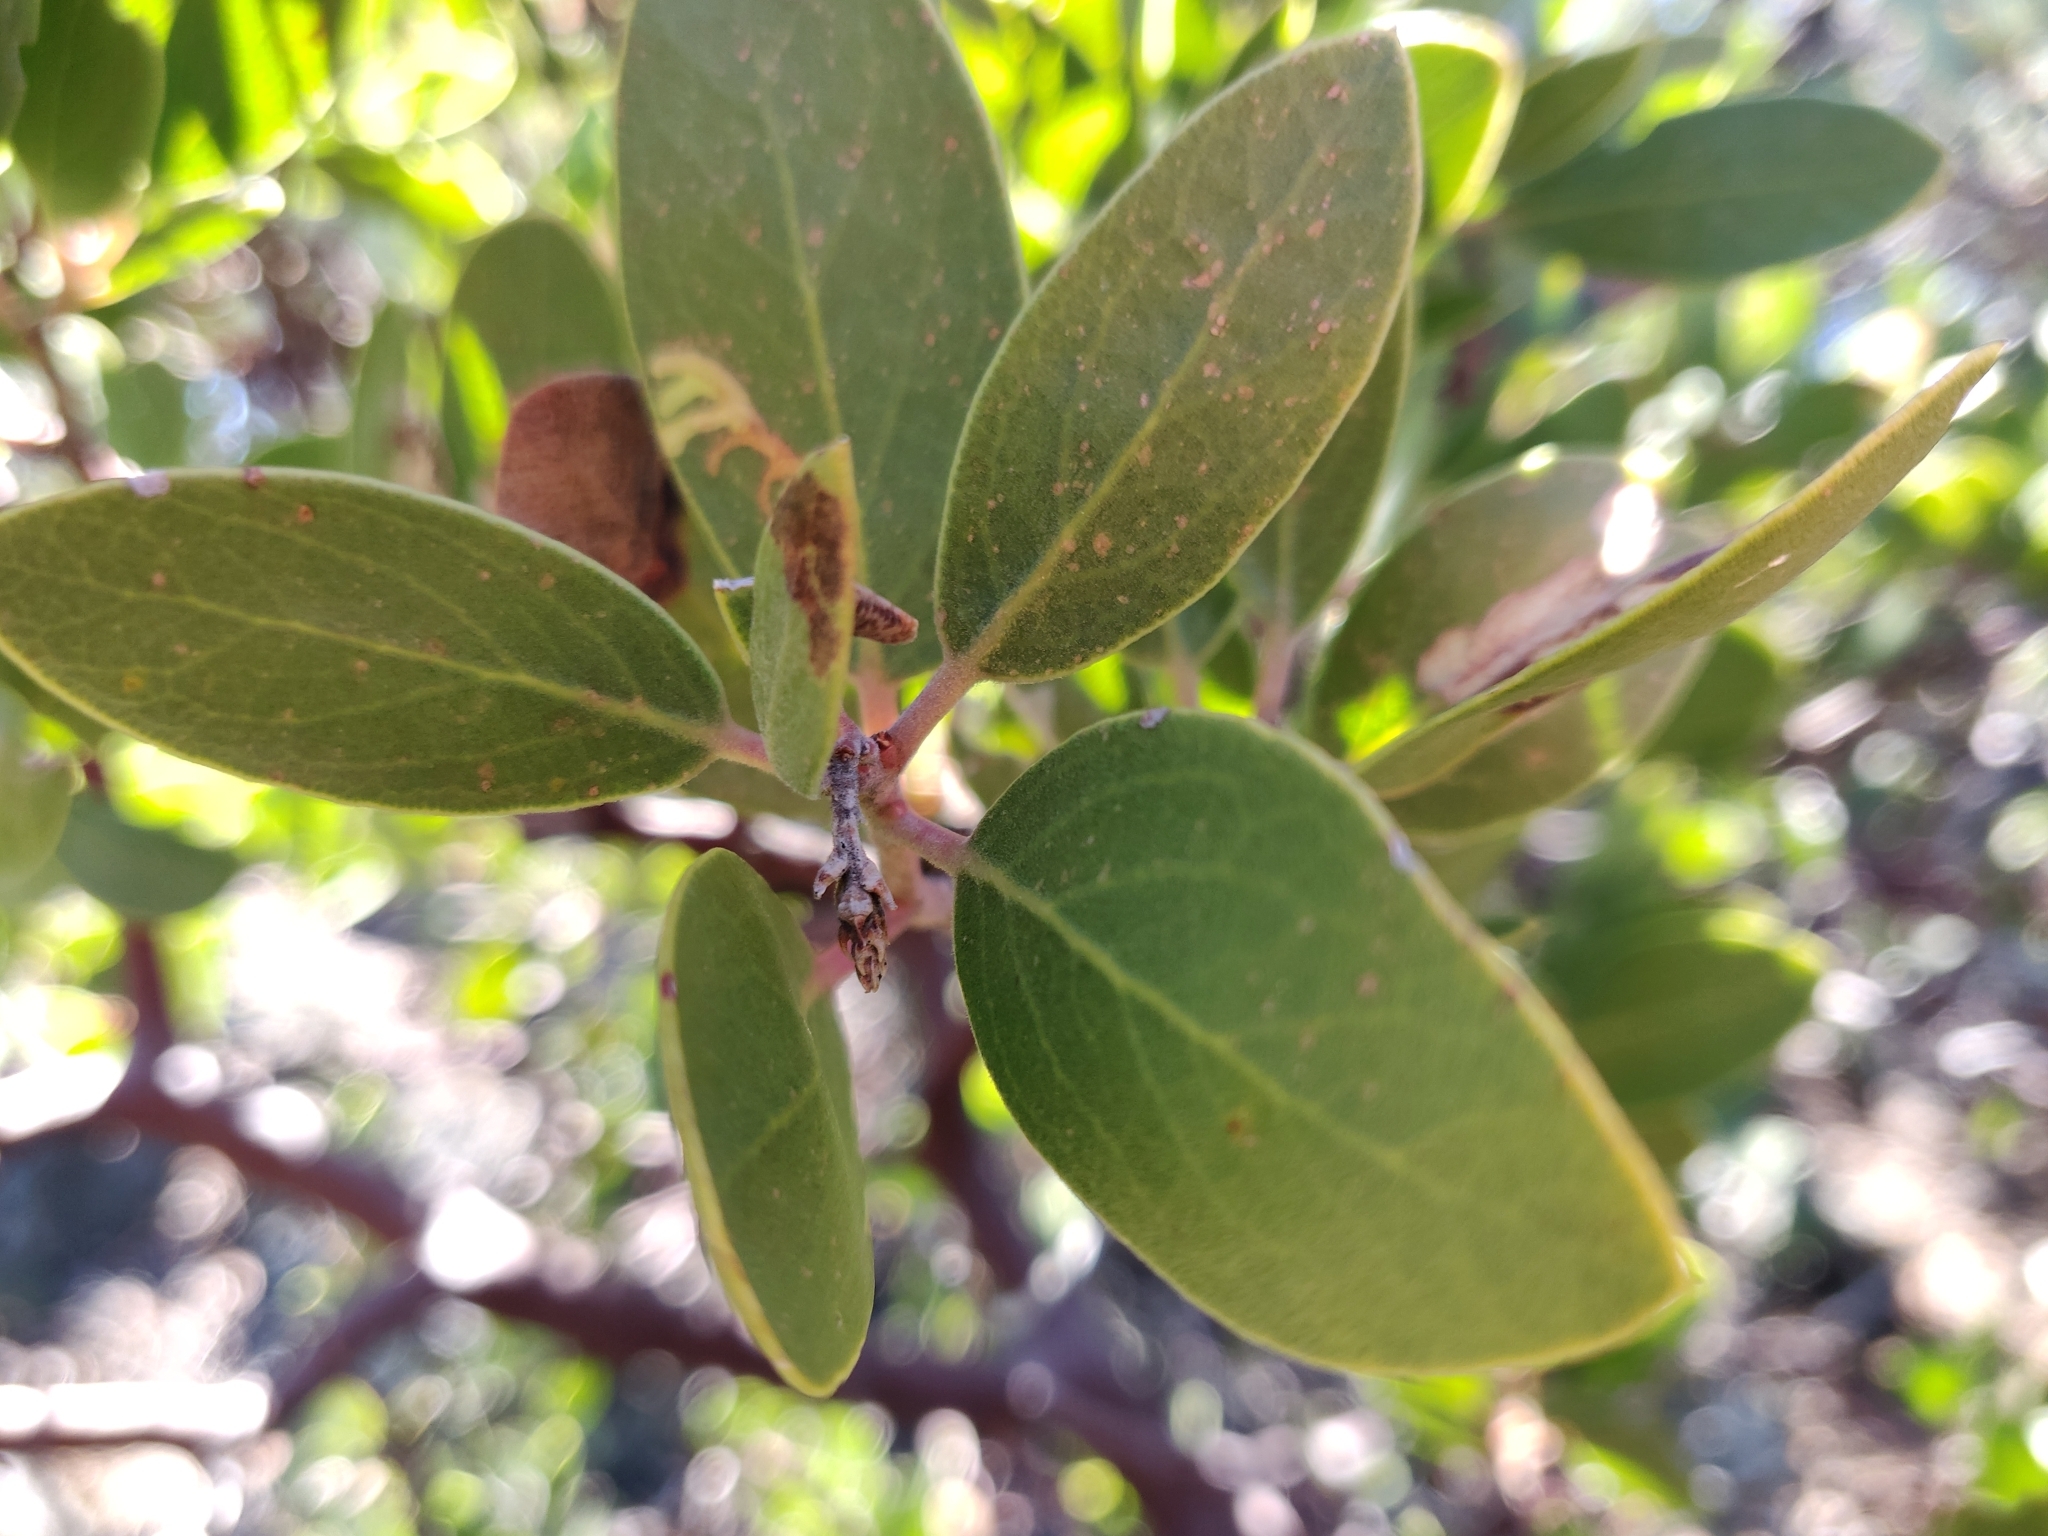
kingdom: Plantae
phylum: Tracheophyta
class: Magnoliopsida
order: Ericales
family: Ericaceae
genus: Arctostaphylos
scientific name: Arctostaphylos manzanita
